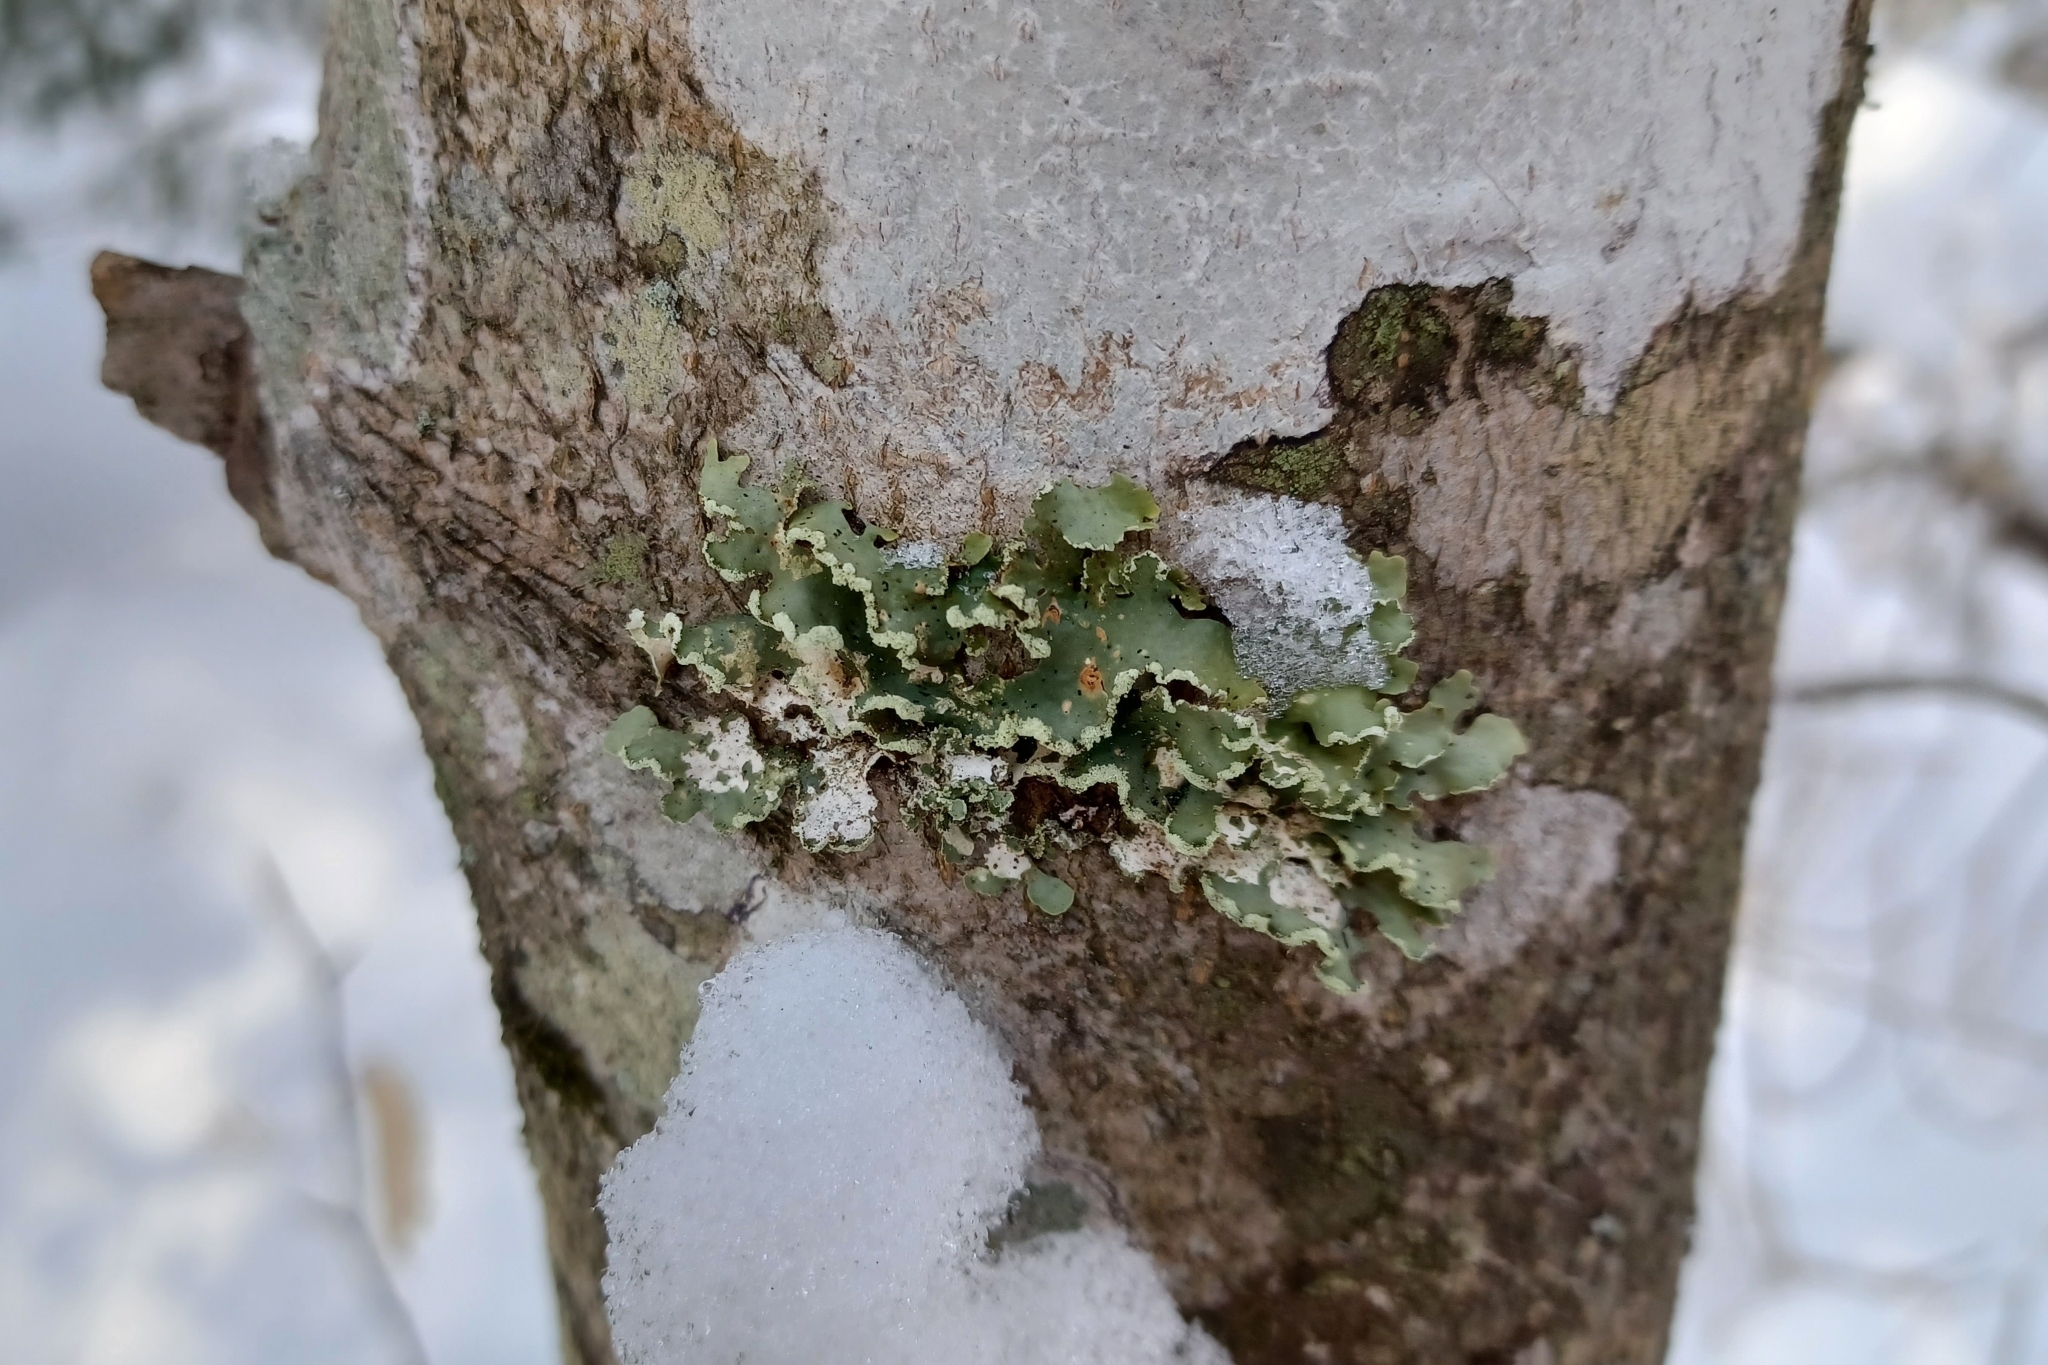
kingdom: Fungi
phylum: Ascomycota
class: Lecanoromycetes
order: Lecanorales
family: Parmeliaceae
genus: Usnocetraria
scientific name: Usnocetraria oakesiana
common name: Yellow ribbon lichen
